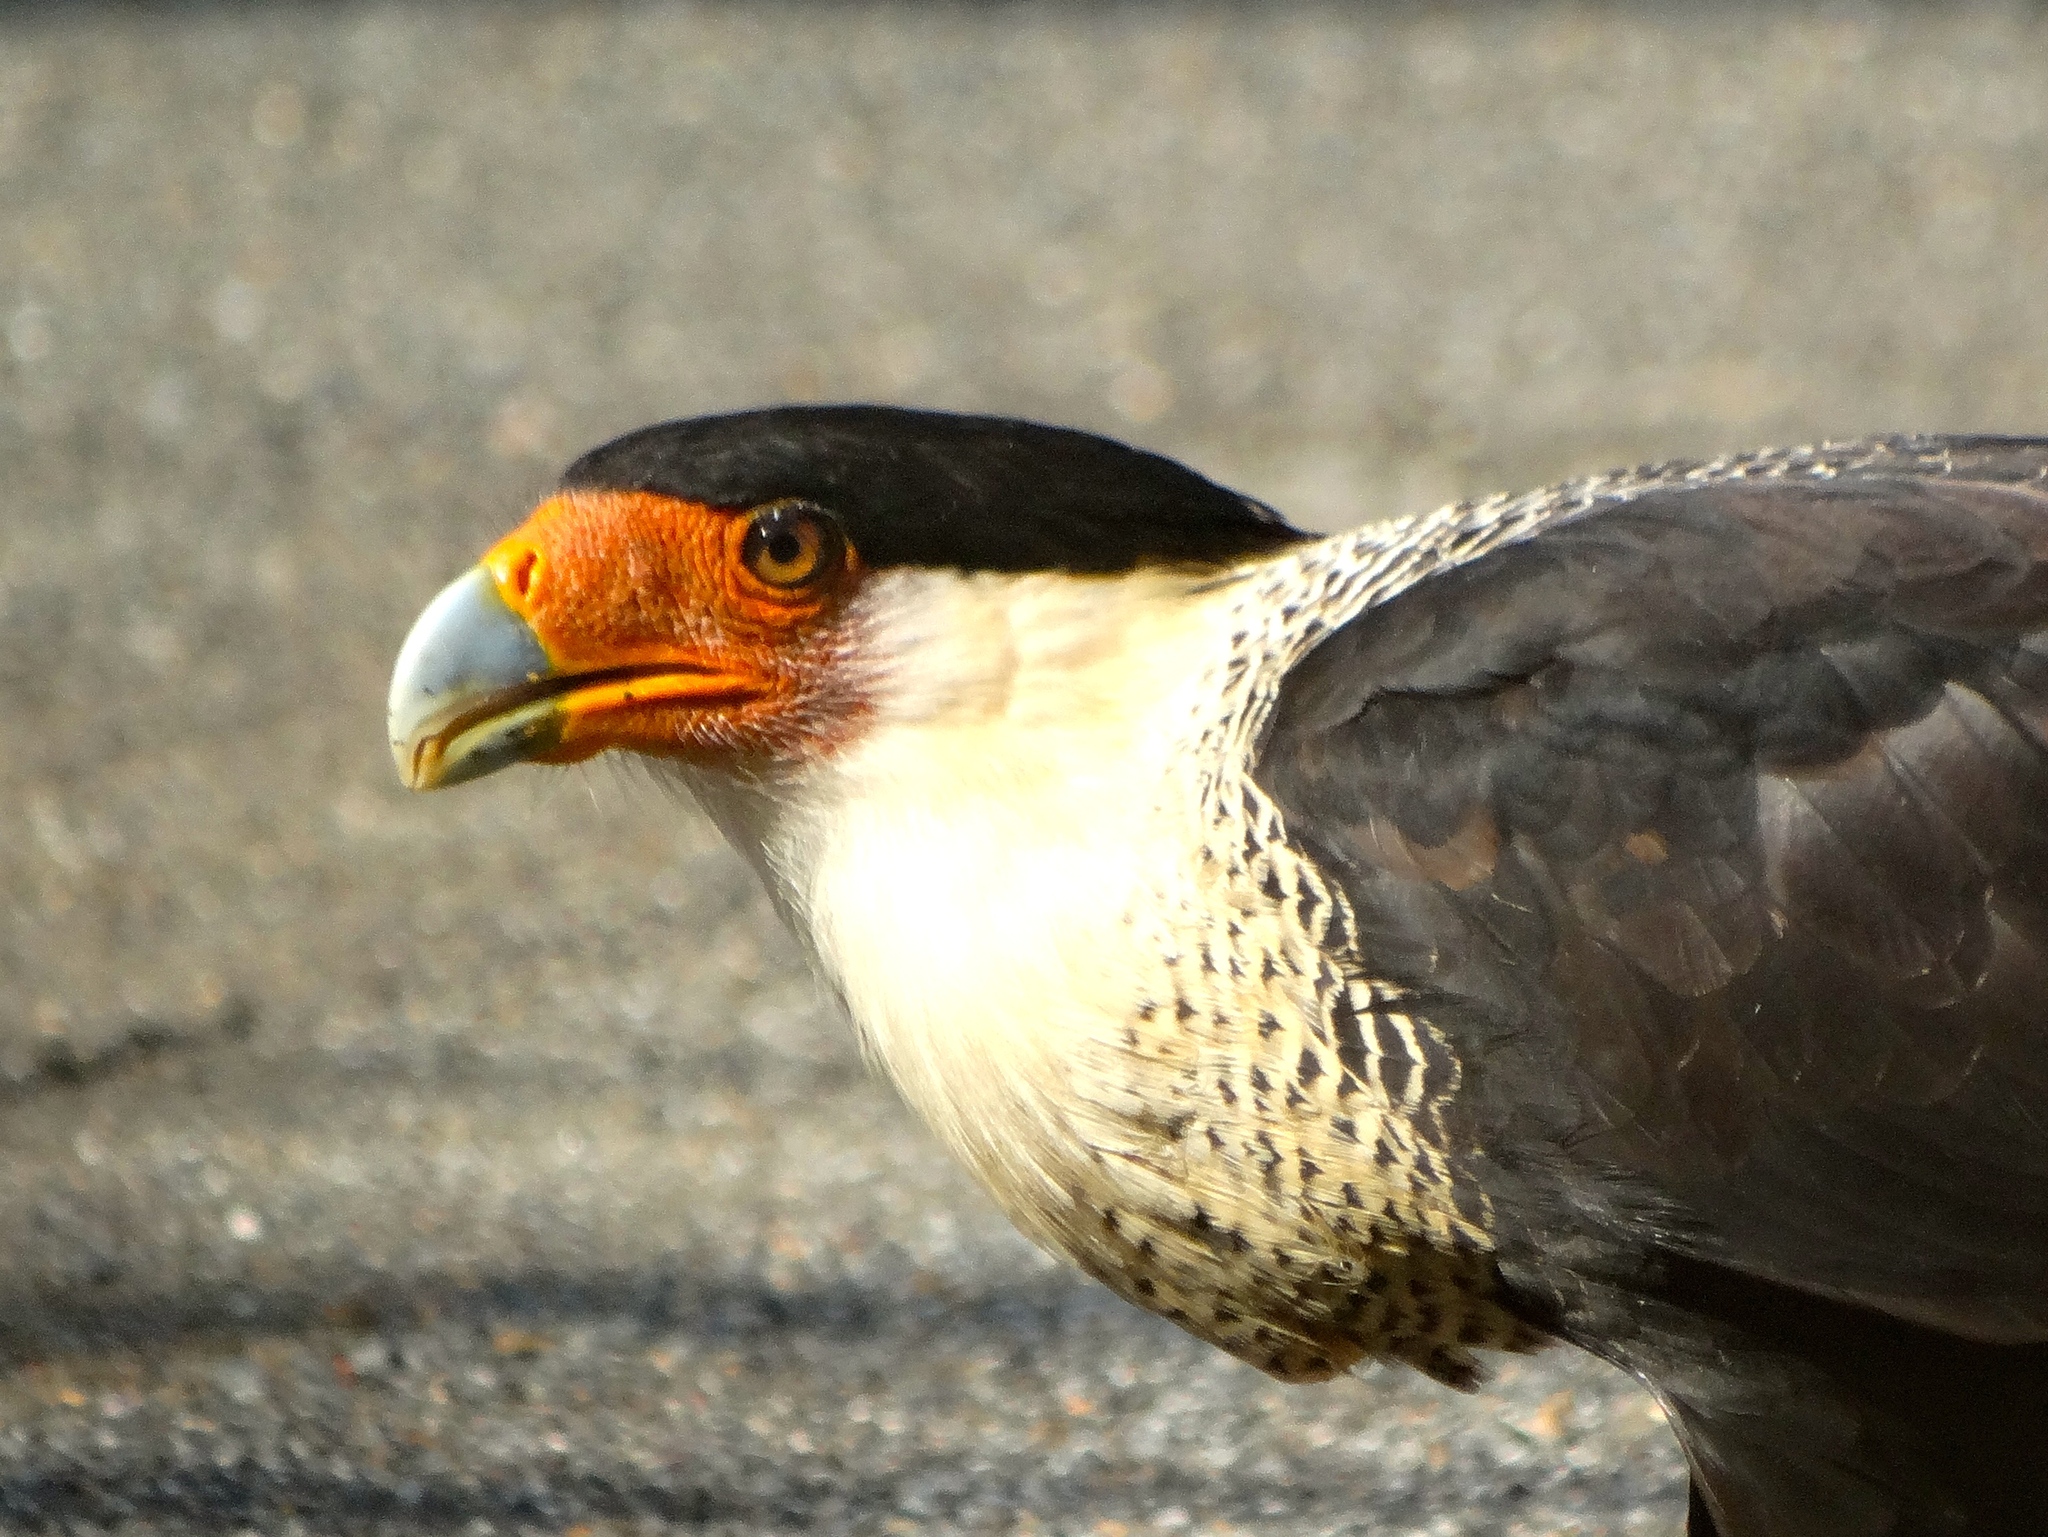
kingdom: Animalia
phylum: Chordata
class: Aves
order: Falconiformes
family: Falconidae
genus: Caracara
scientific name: Caracara plancus
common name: Southern caracara
